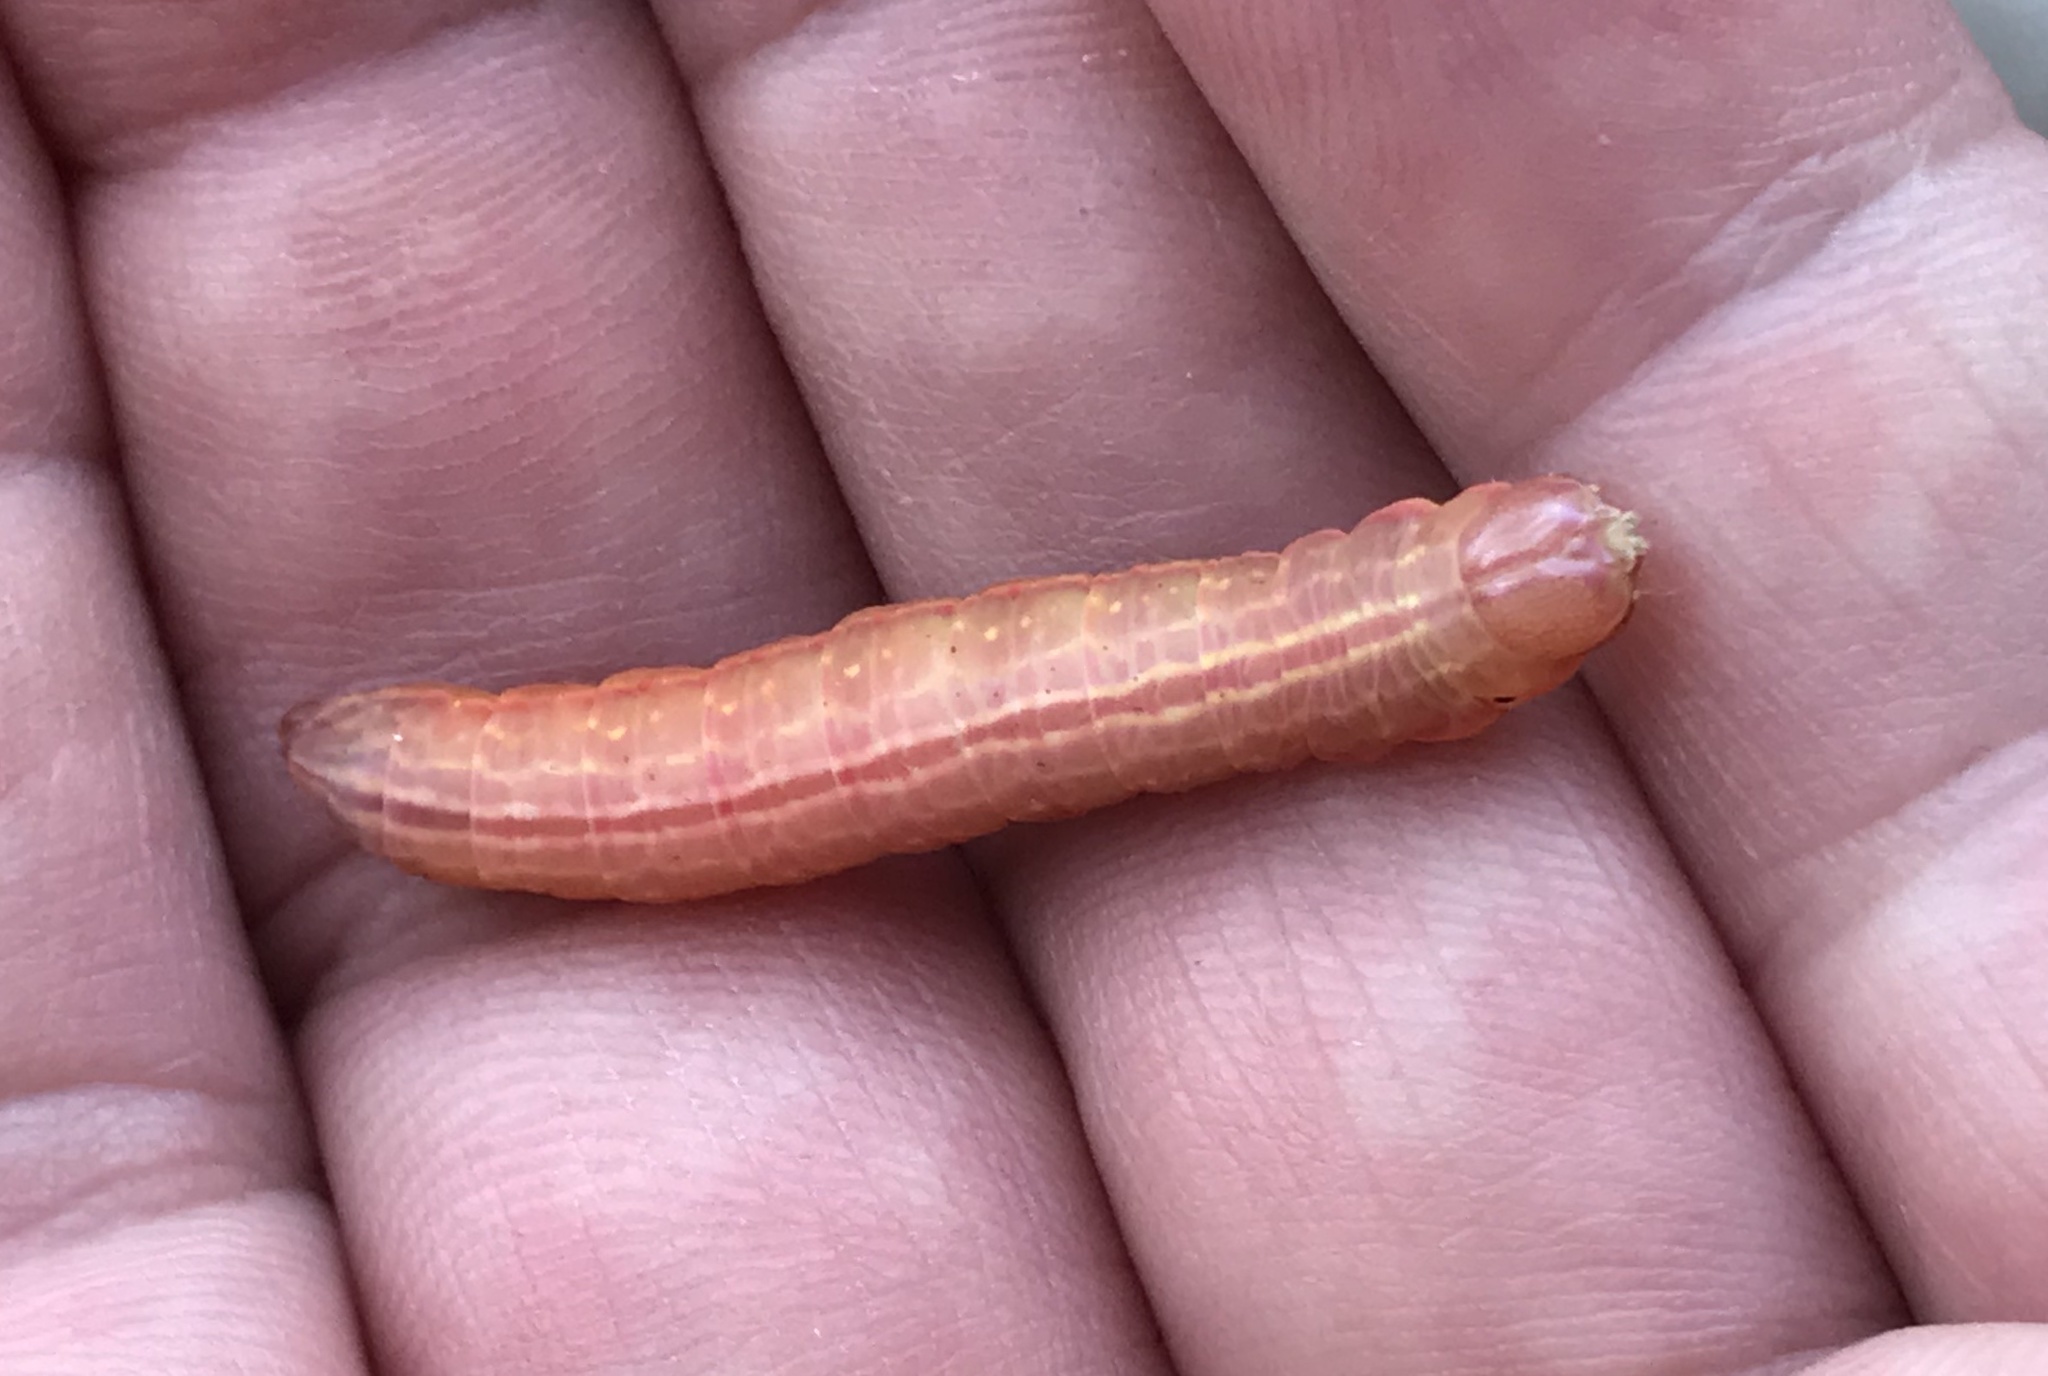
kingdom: Animalia
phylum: Arthropoda
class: Insecta
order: Lepidoptera
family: Notodontidae
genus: Misogada
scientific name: Misogada unicolor
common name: Drab prominent
